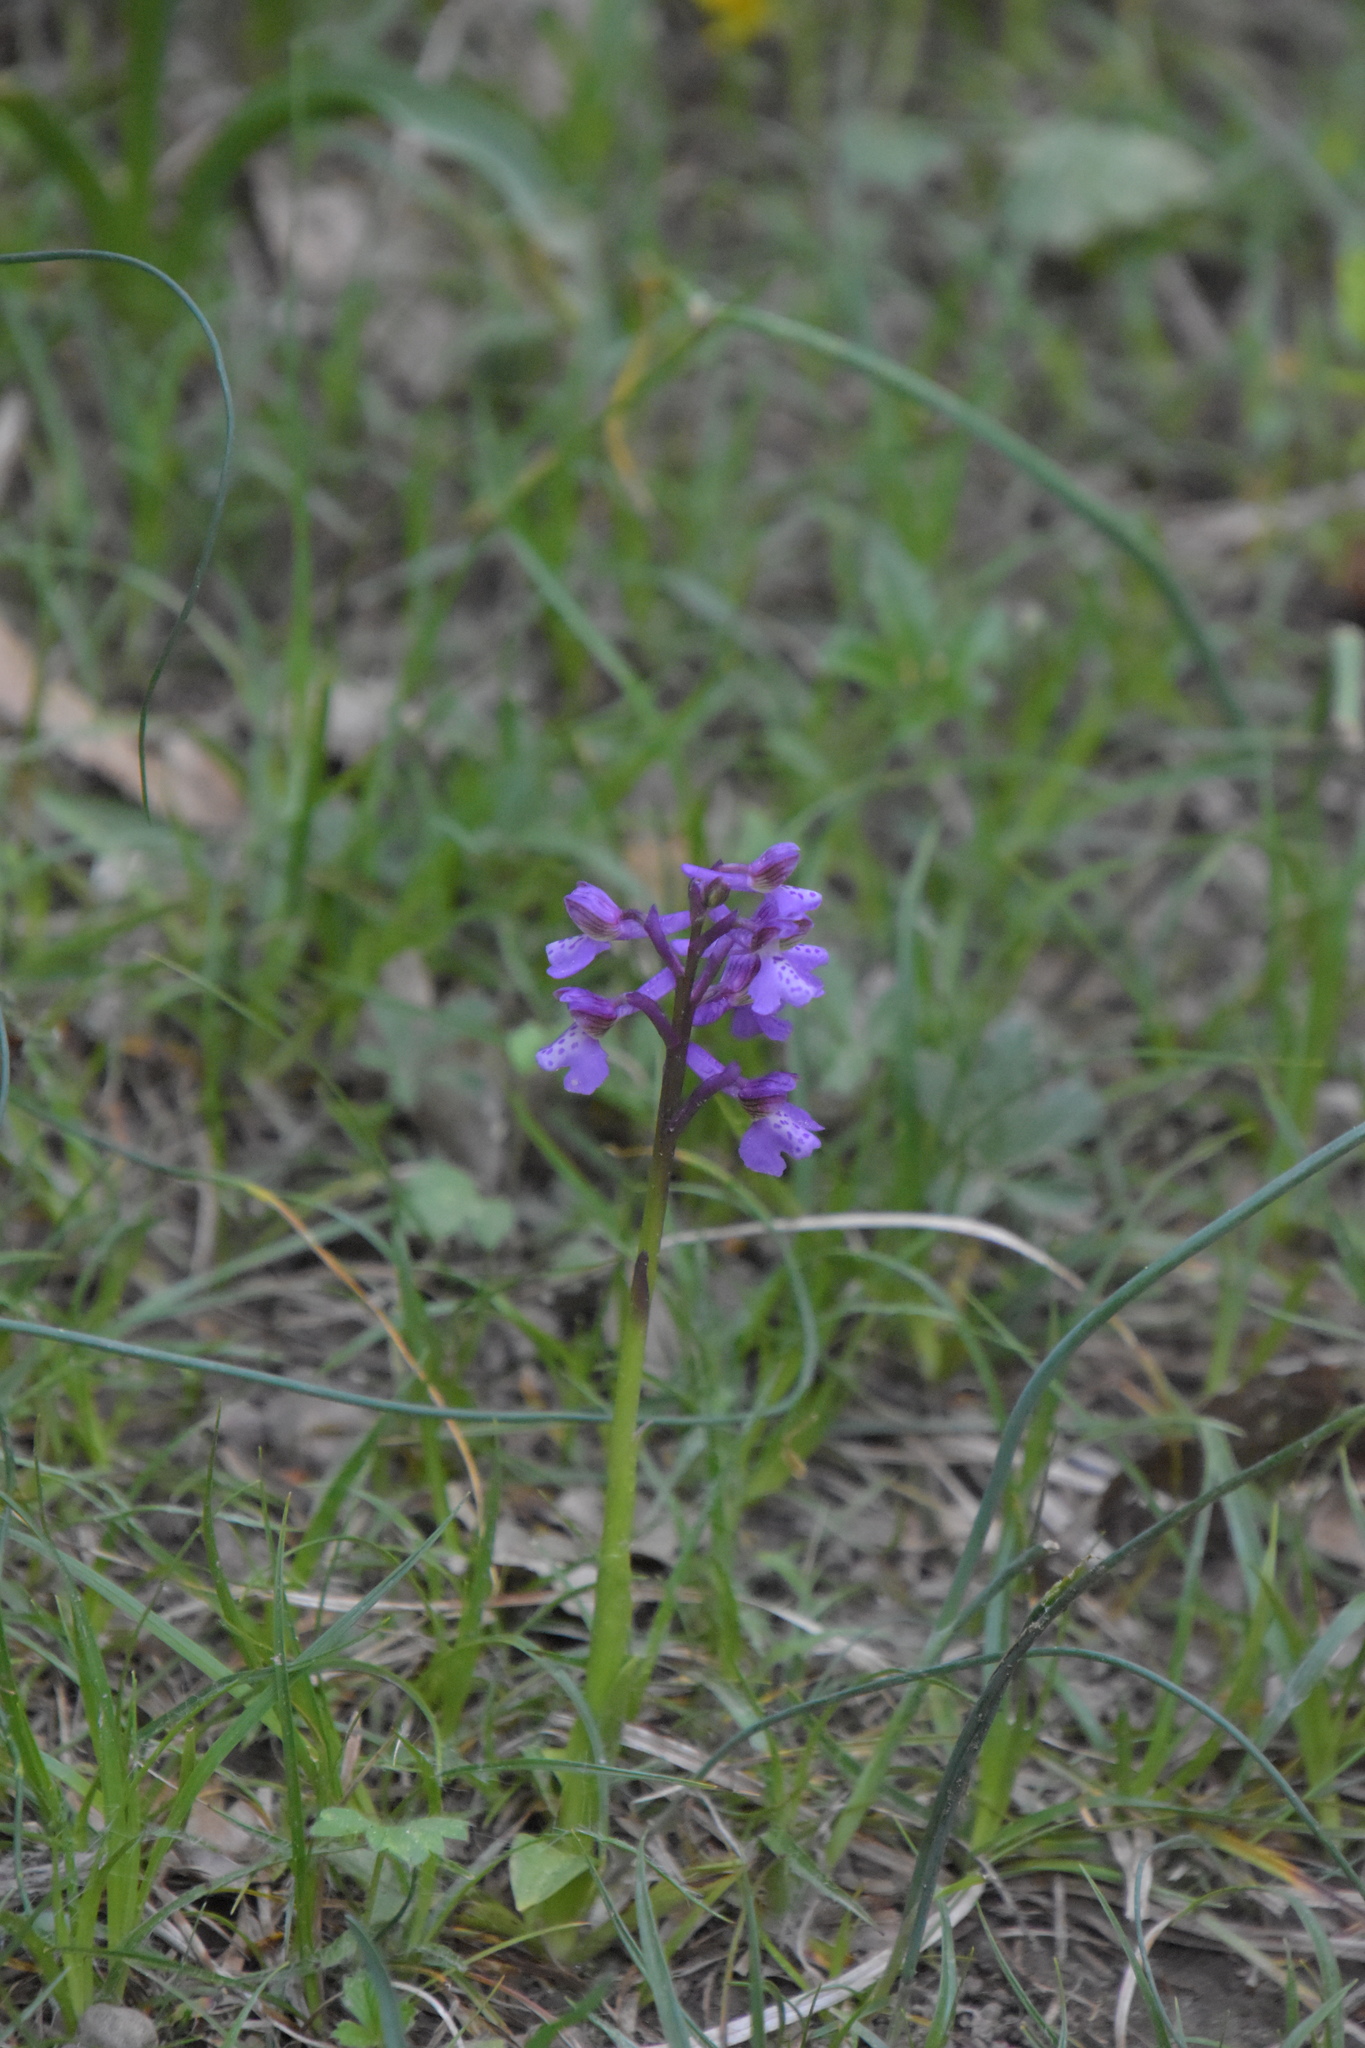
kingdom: Plantae
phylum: Tracheophyta
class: Liliopsida
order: Asparagales
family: Orchidaceae
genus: Anacamptis
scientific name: Anacamptis morio
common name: Green-winged orchid
